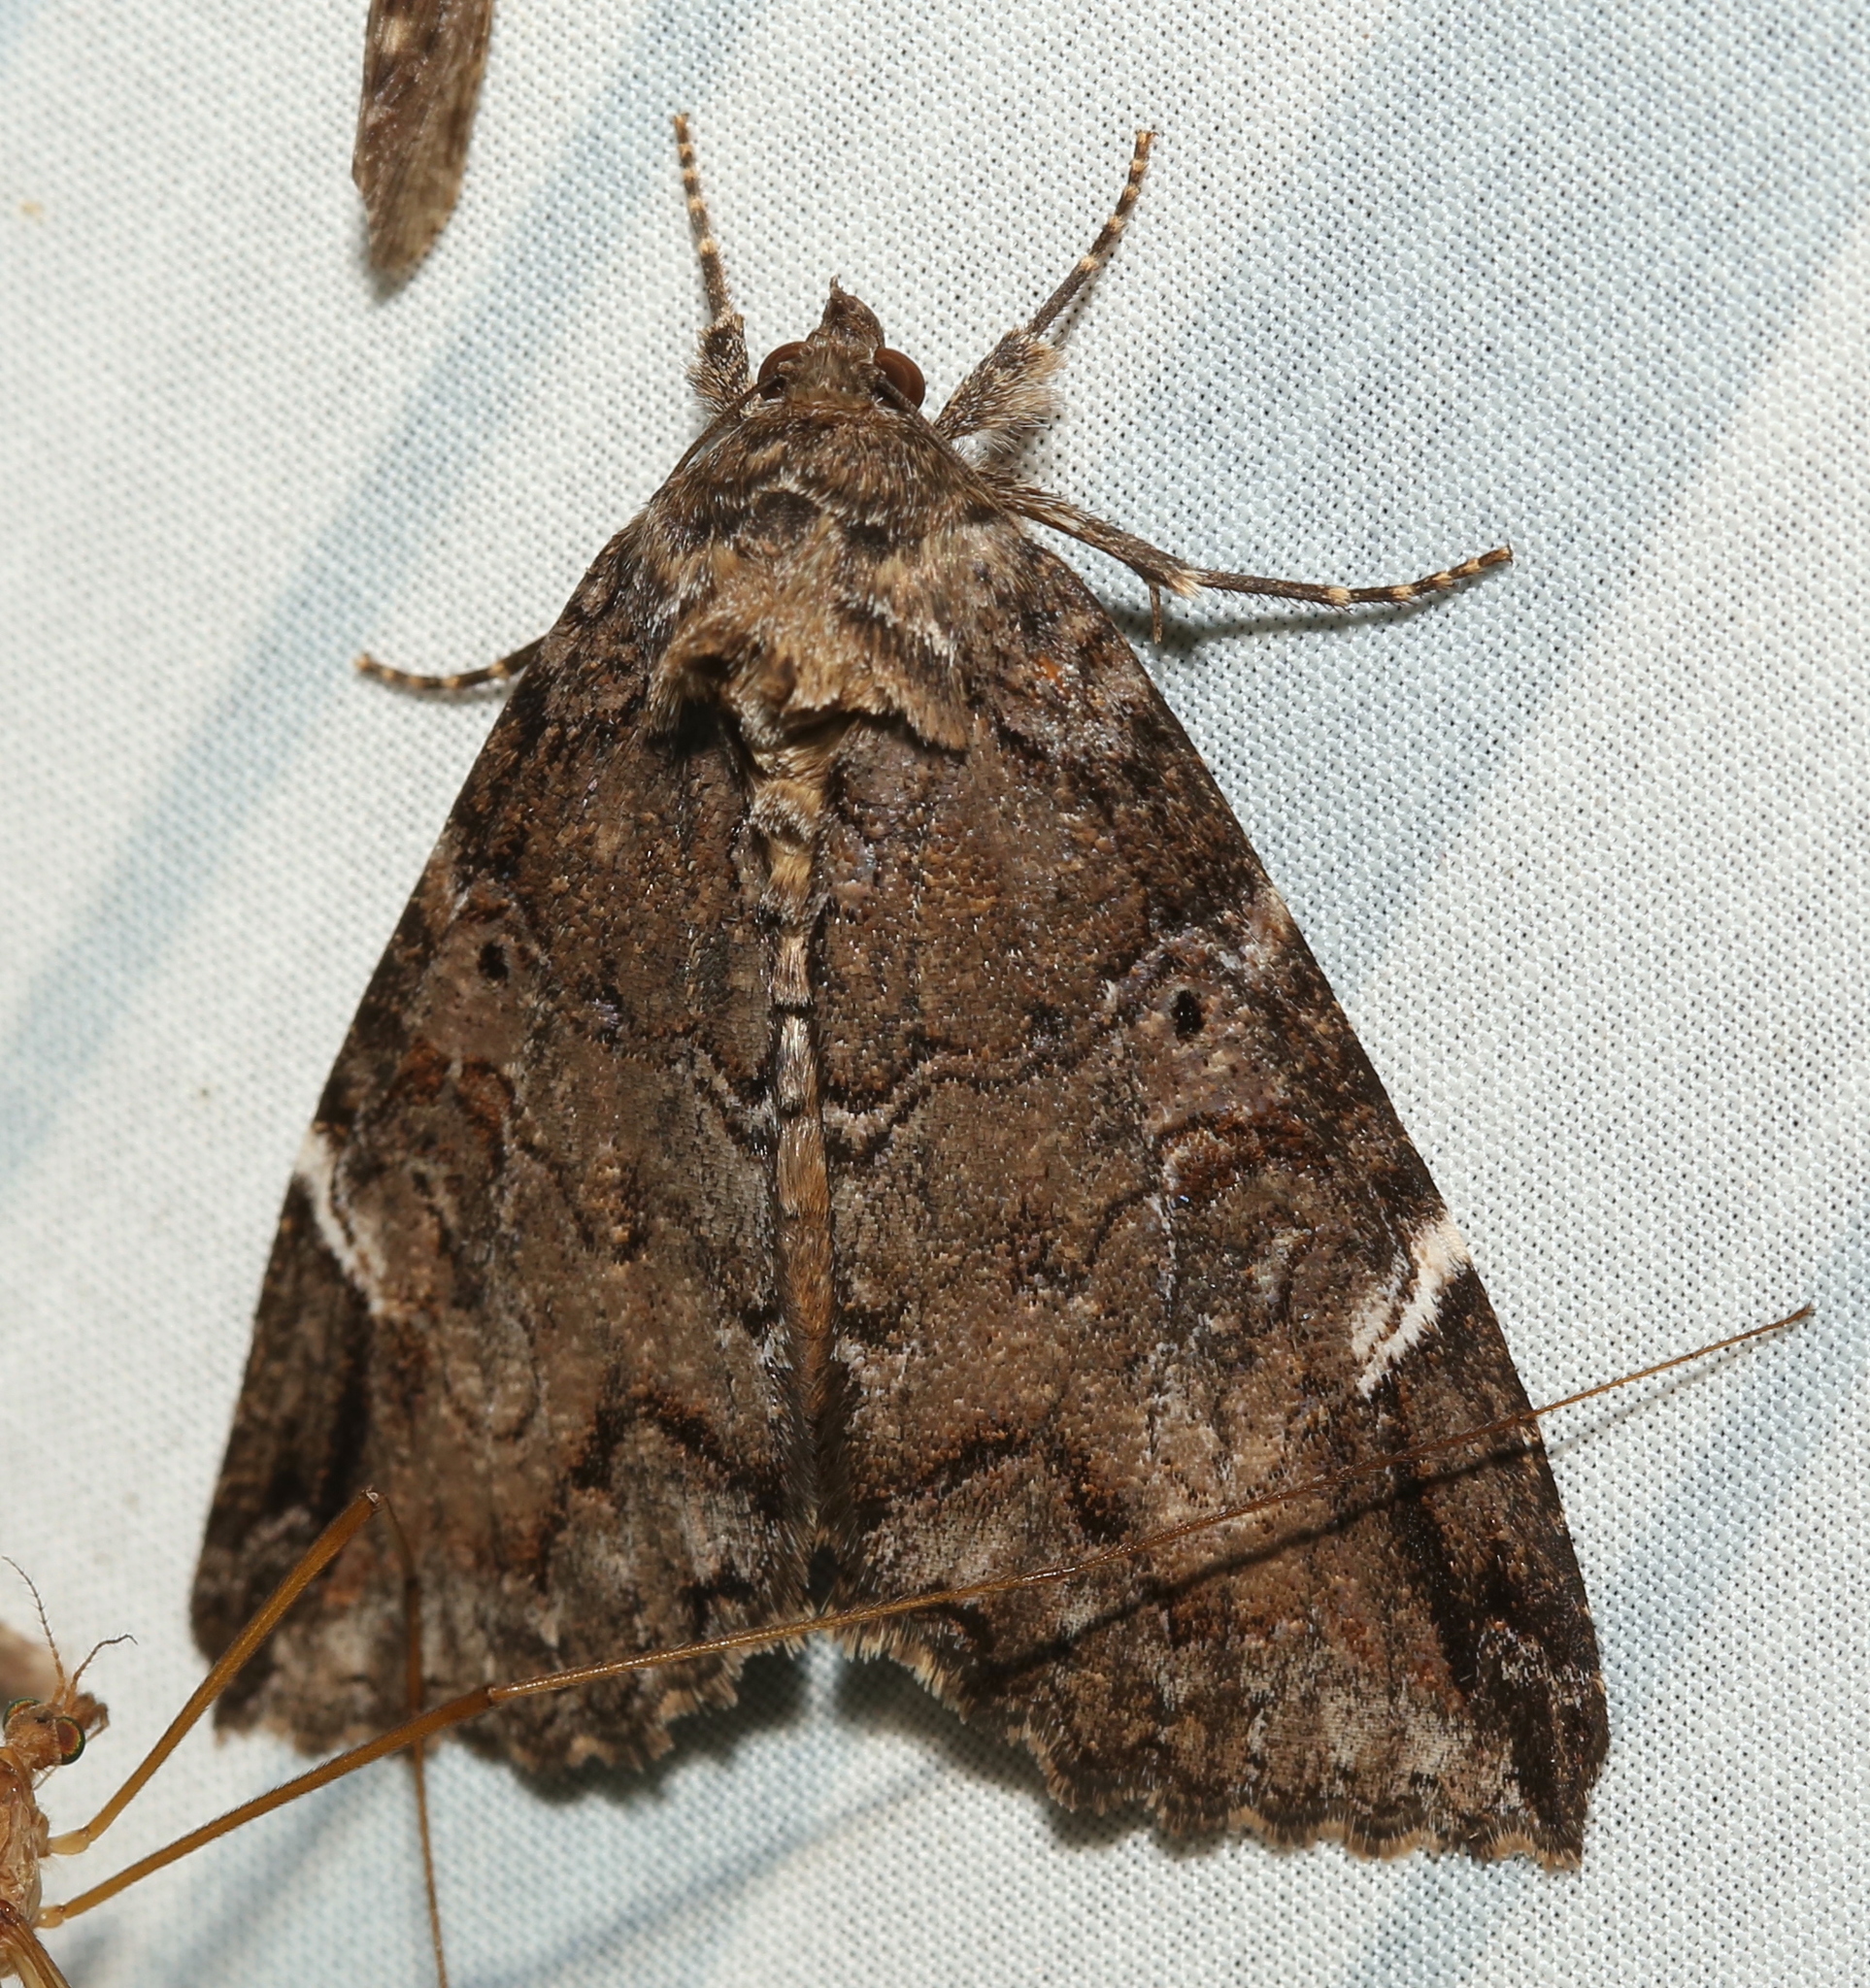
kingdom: Animalia
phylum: Arthropoda
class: Insecta
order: Lepidoptera
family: Erebidae
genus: Euparthenos
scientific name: Euparthenos nubilis
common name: Locust underwing
